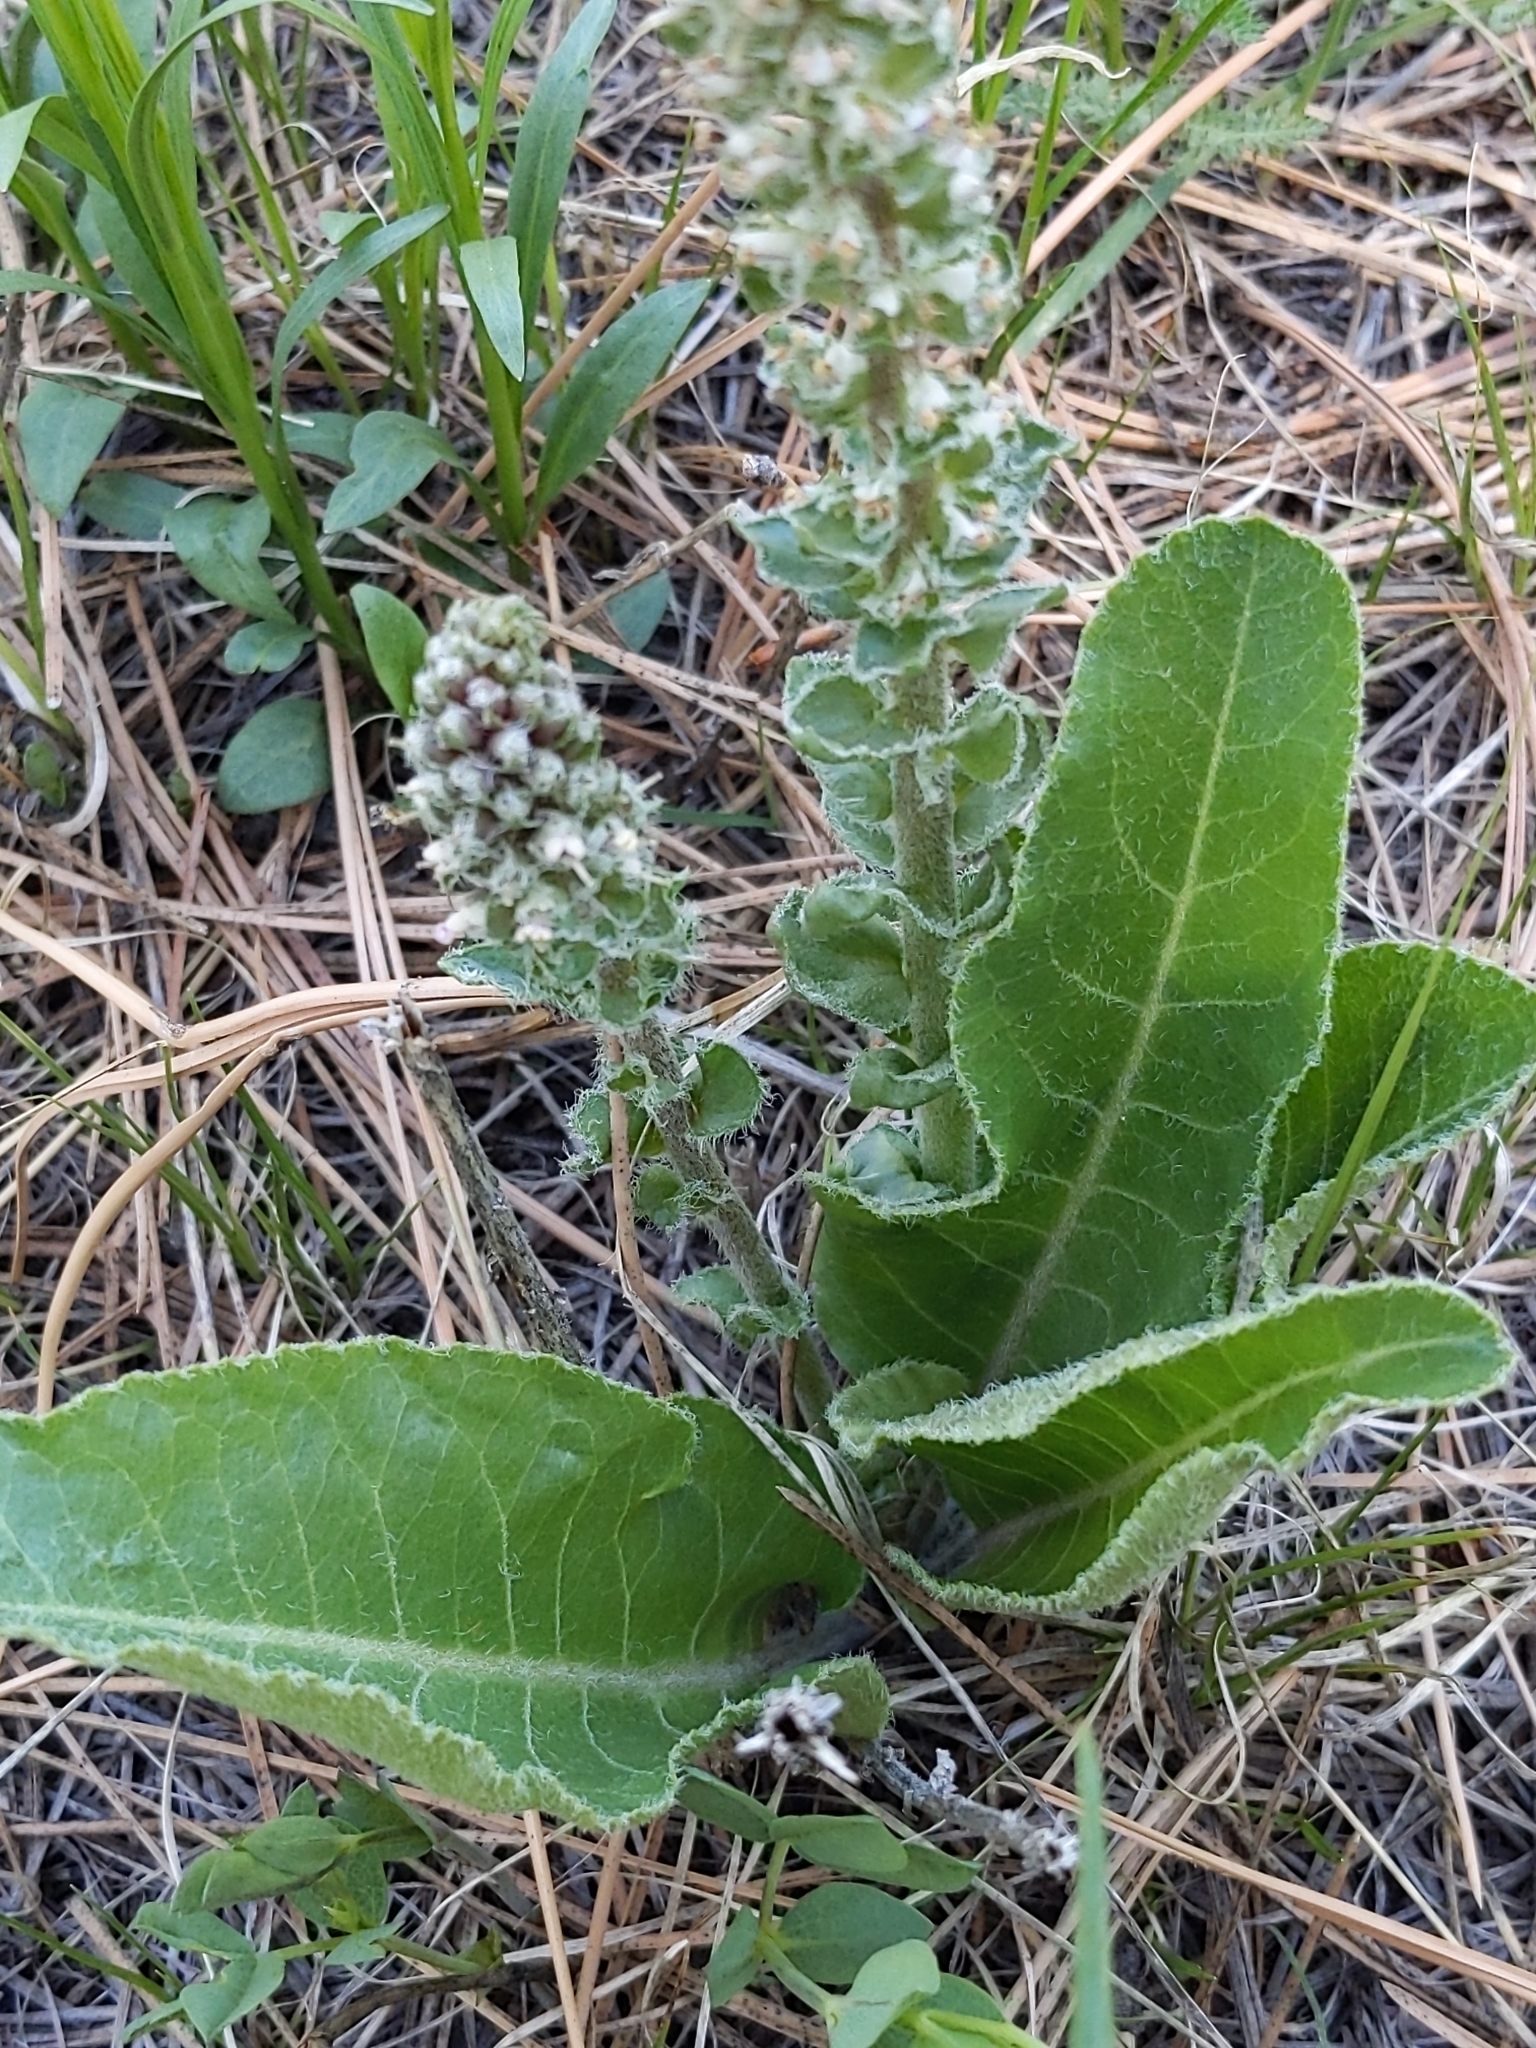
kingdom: Plantae
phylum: Tracheophyta
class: Magnoliopsida
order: Lamiales
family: Plantaginaceae
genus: Veronica
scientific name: Veronica plantaginea
